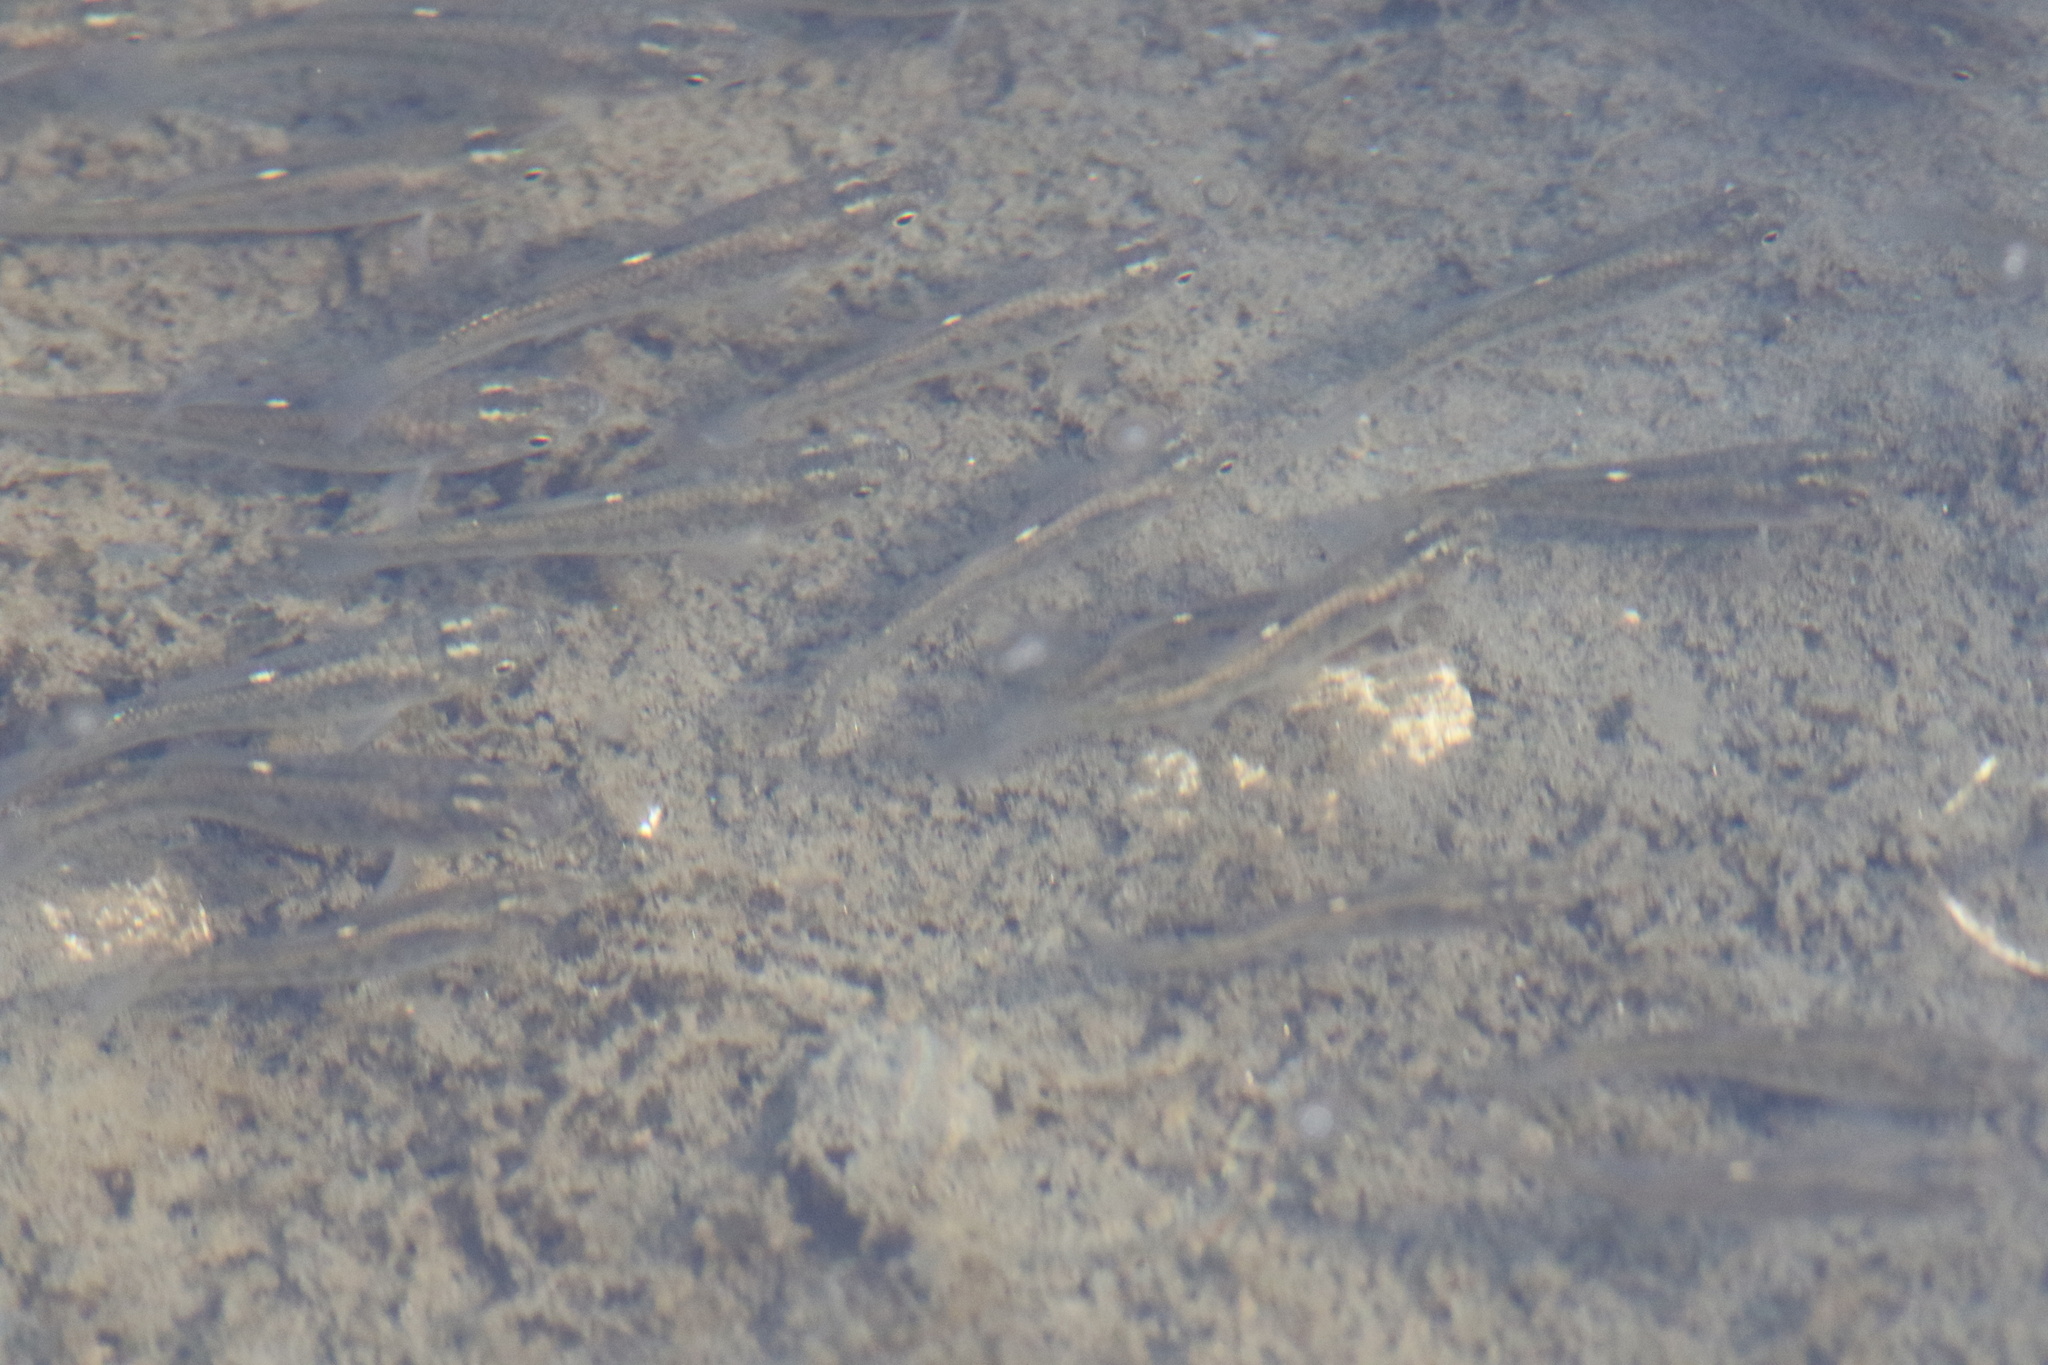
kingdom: Animalia
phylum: Chordata
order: Cyprinodontiformes
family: Fundulidae
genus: Fundulus
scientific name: Fundulus parvipinnis
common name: California killifish
